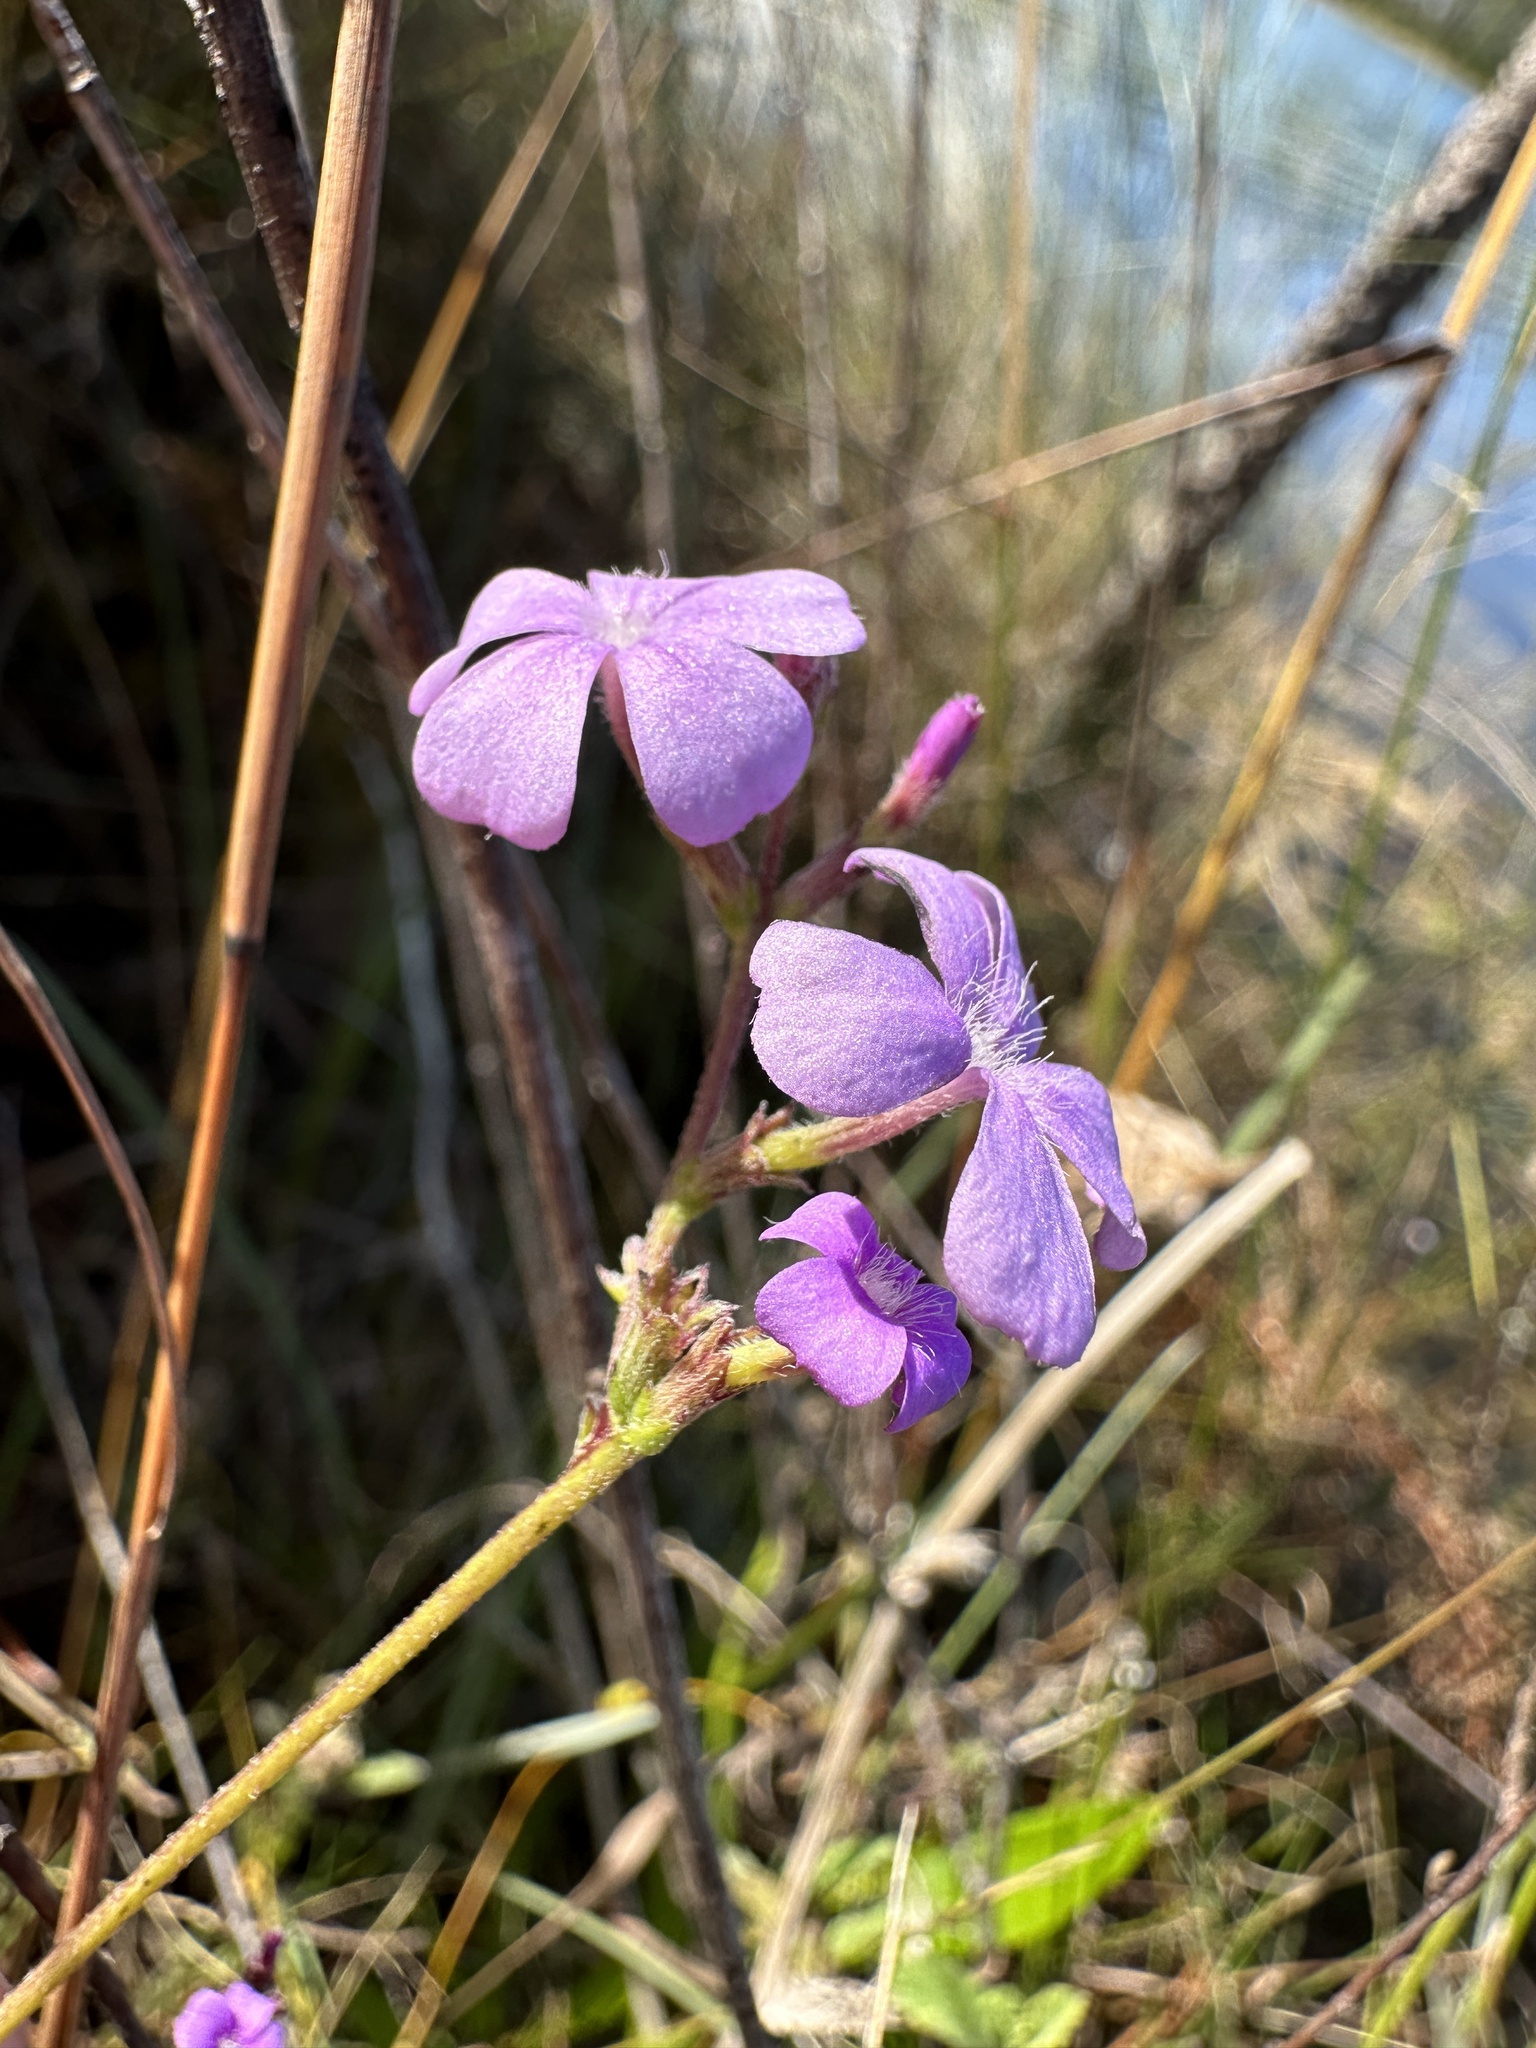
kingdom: Plantae
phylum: Tracheophyta
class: Magnoliopsida
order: Lamiales
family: Orobanchaceae
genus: Buchnera
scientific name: Buchnera floridana
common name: Florida bluehearts
